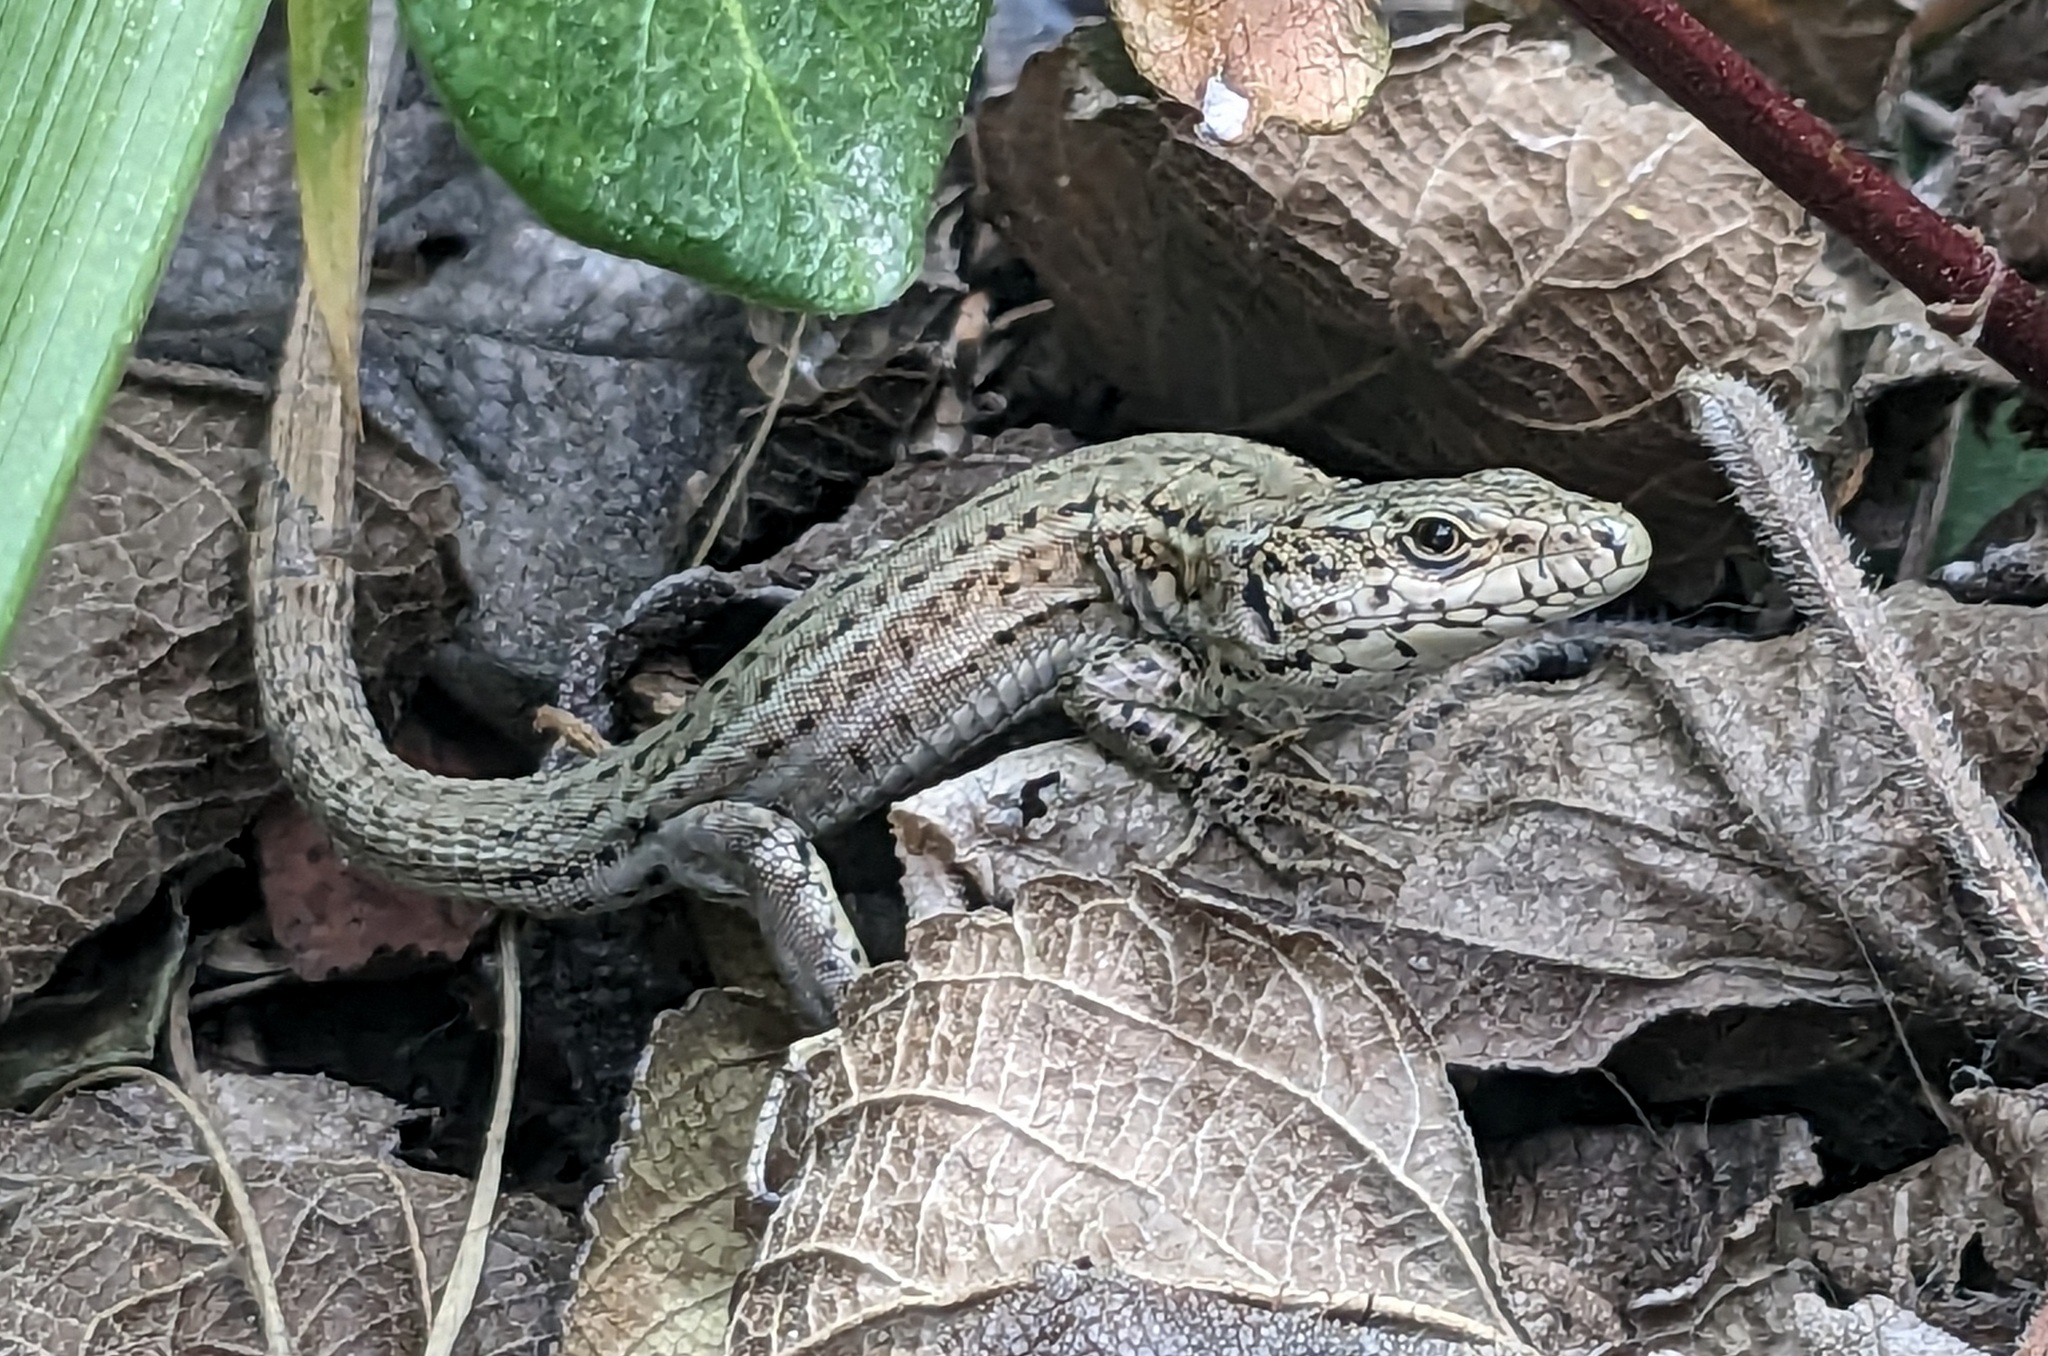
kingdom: Animalia
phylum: Chordata
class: Squamata
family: Lacertidae
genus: Podarcis
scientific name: Podarcis liolepis
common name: Catalonian wall lizard
